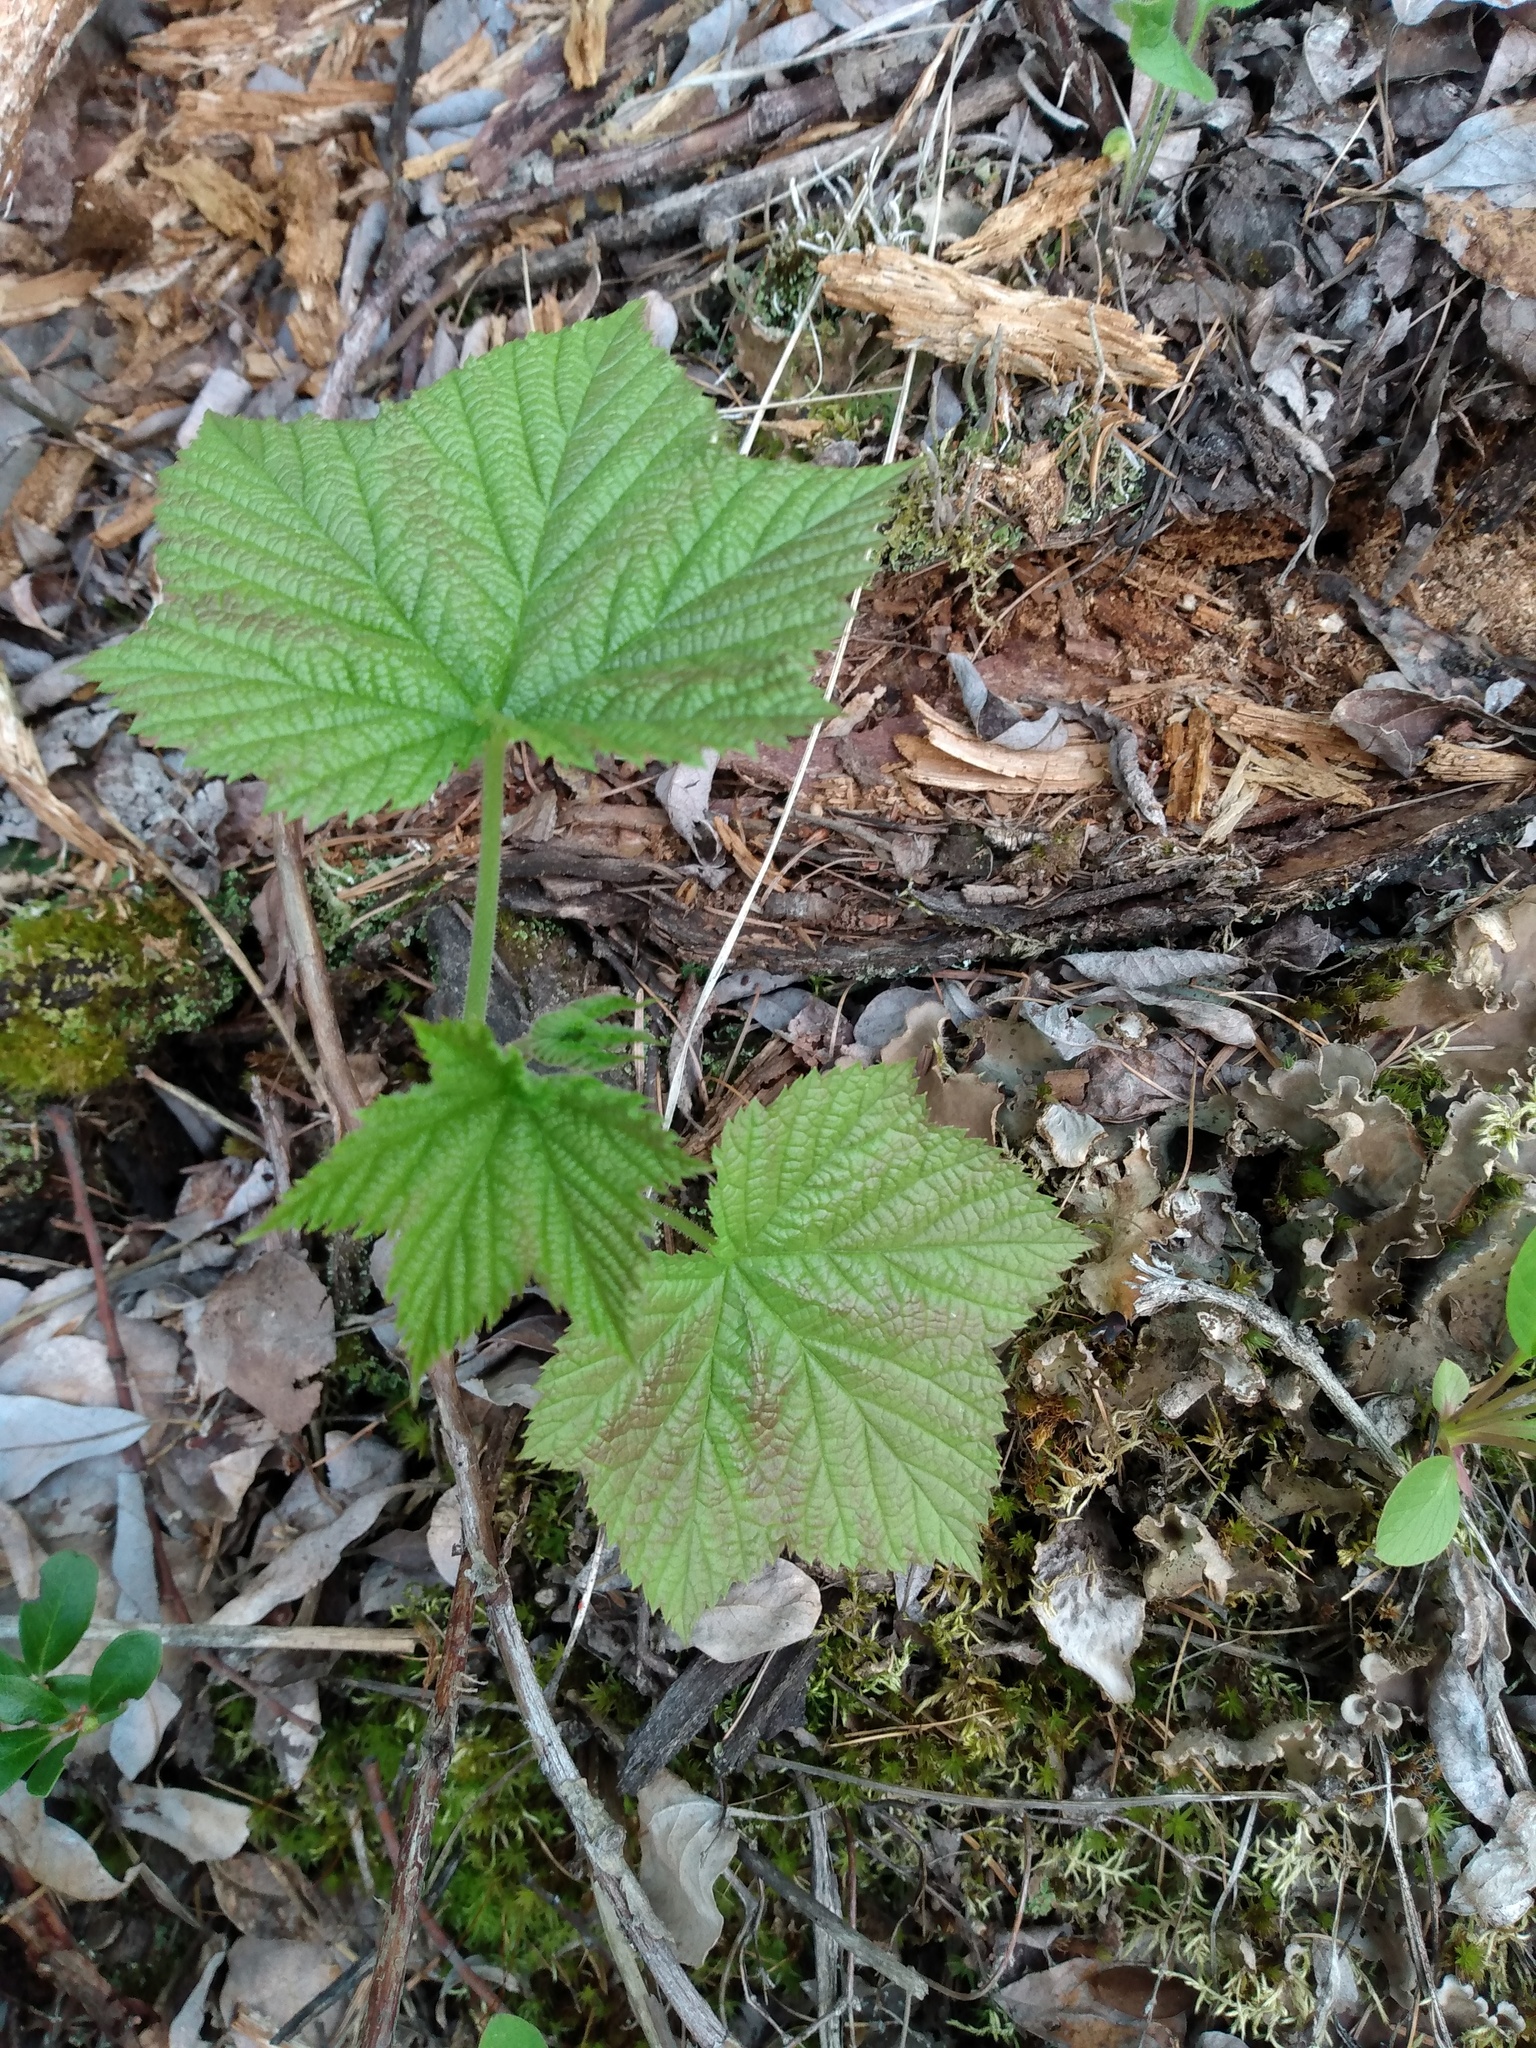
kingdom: Plantae
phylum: Tracheophyta
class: Magnoliopsida
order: Rosales
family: Rosaceae
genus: Rubus
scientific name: Rubus parviflorus
